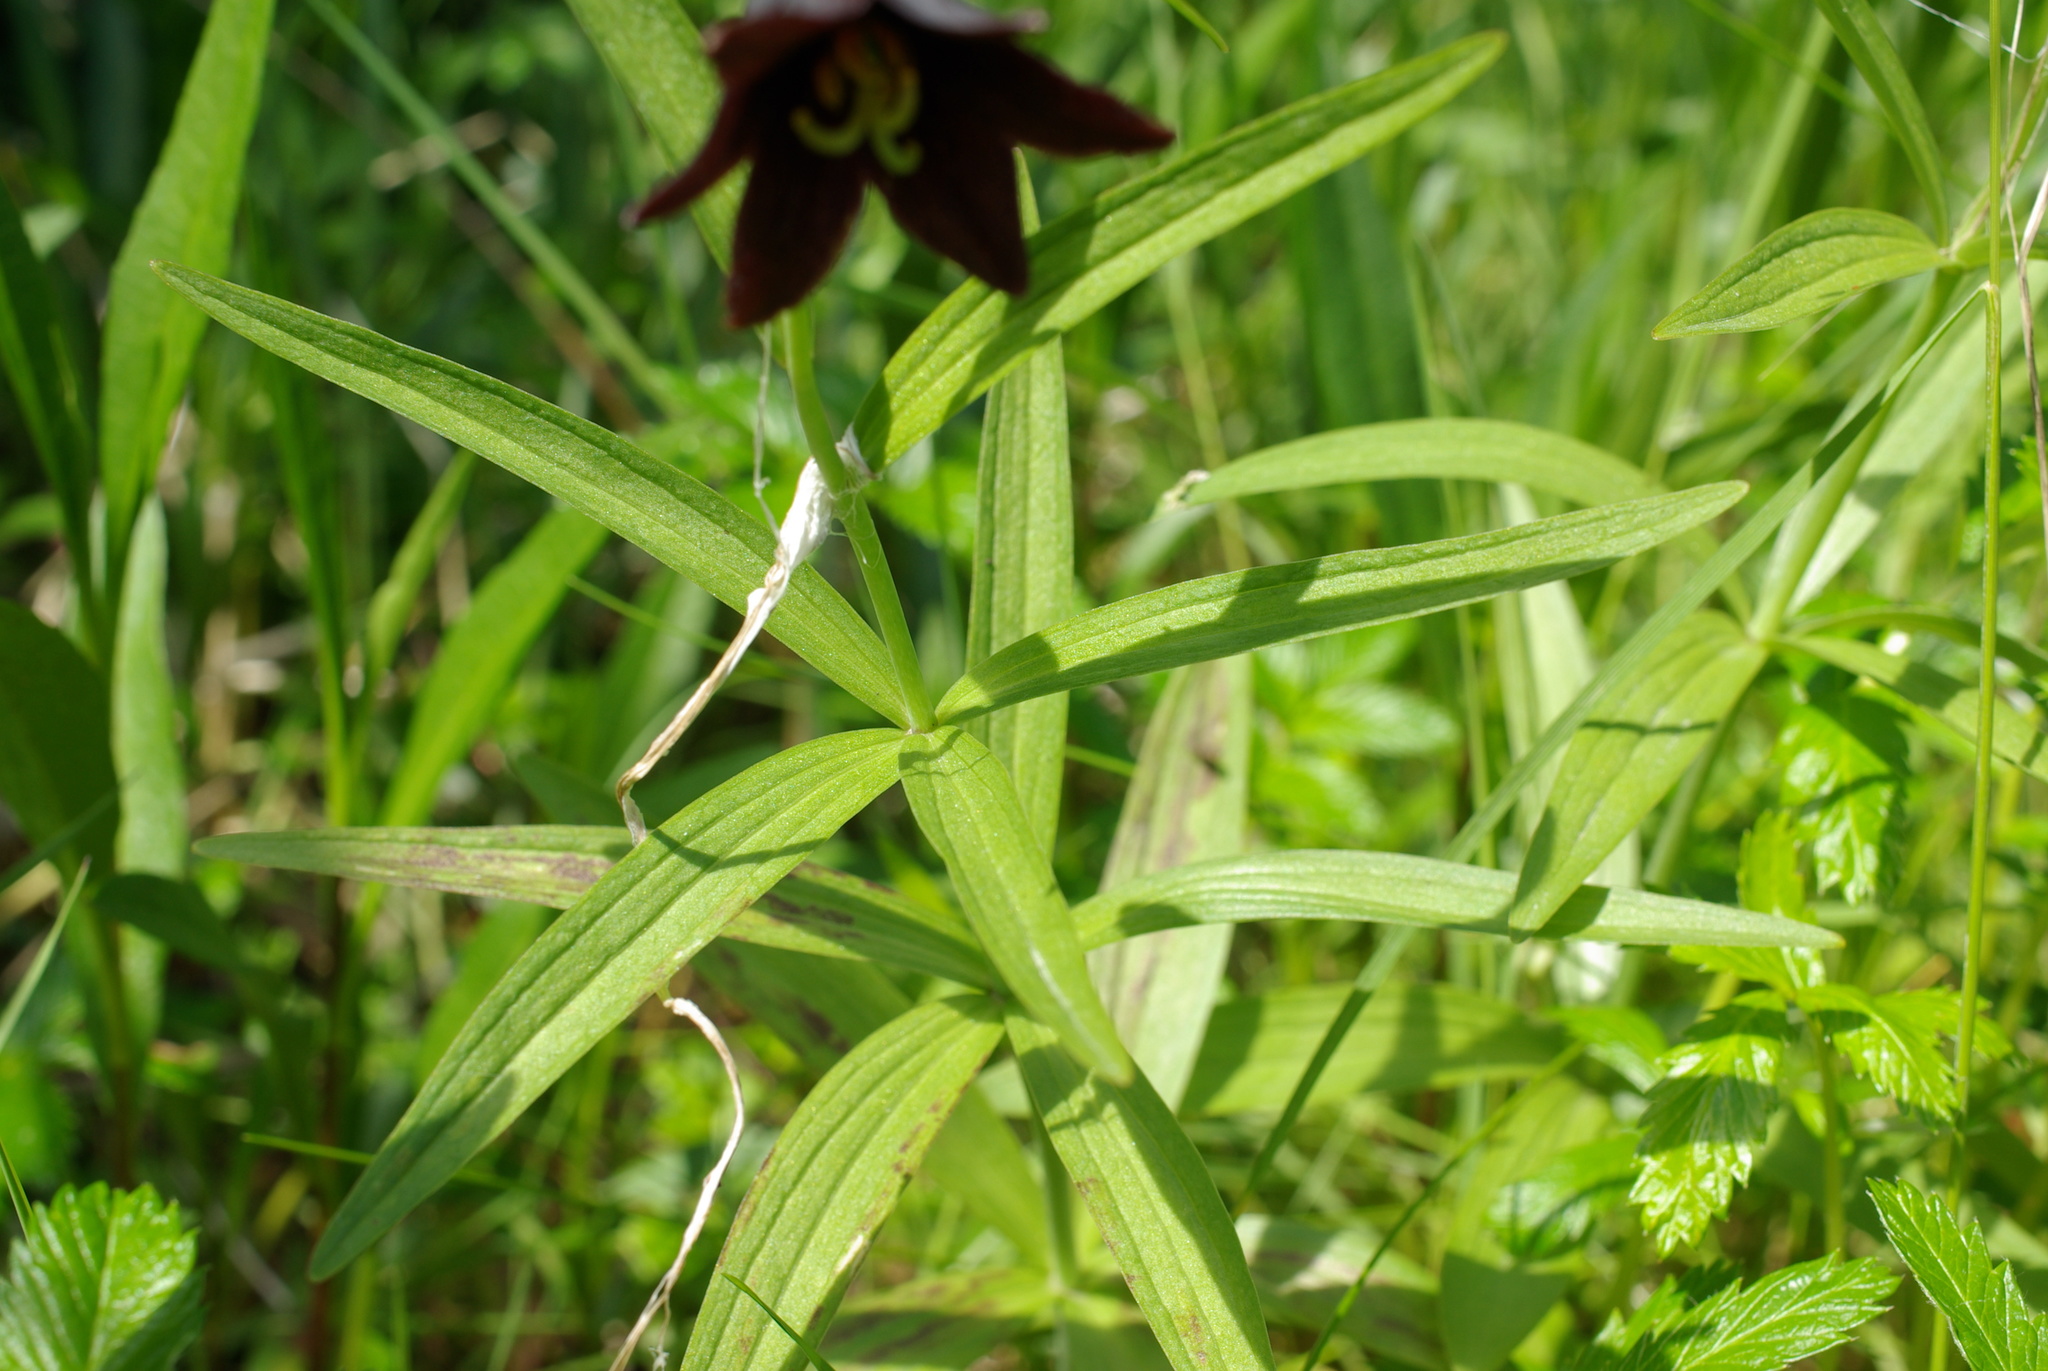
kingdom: Plantae
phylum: Tracheophyta
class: Liliopsida
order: Liliales
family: Liliaceae
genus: Fritillaria
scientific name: Fritillaria camschatcensis
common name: Kamchatka fritillary
